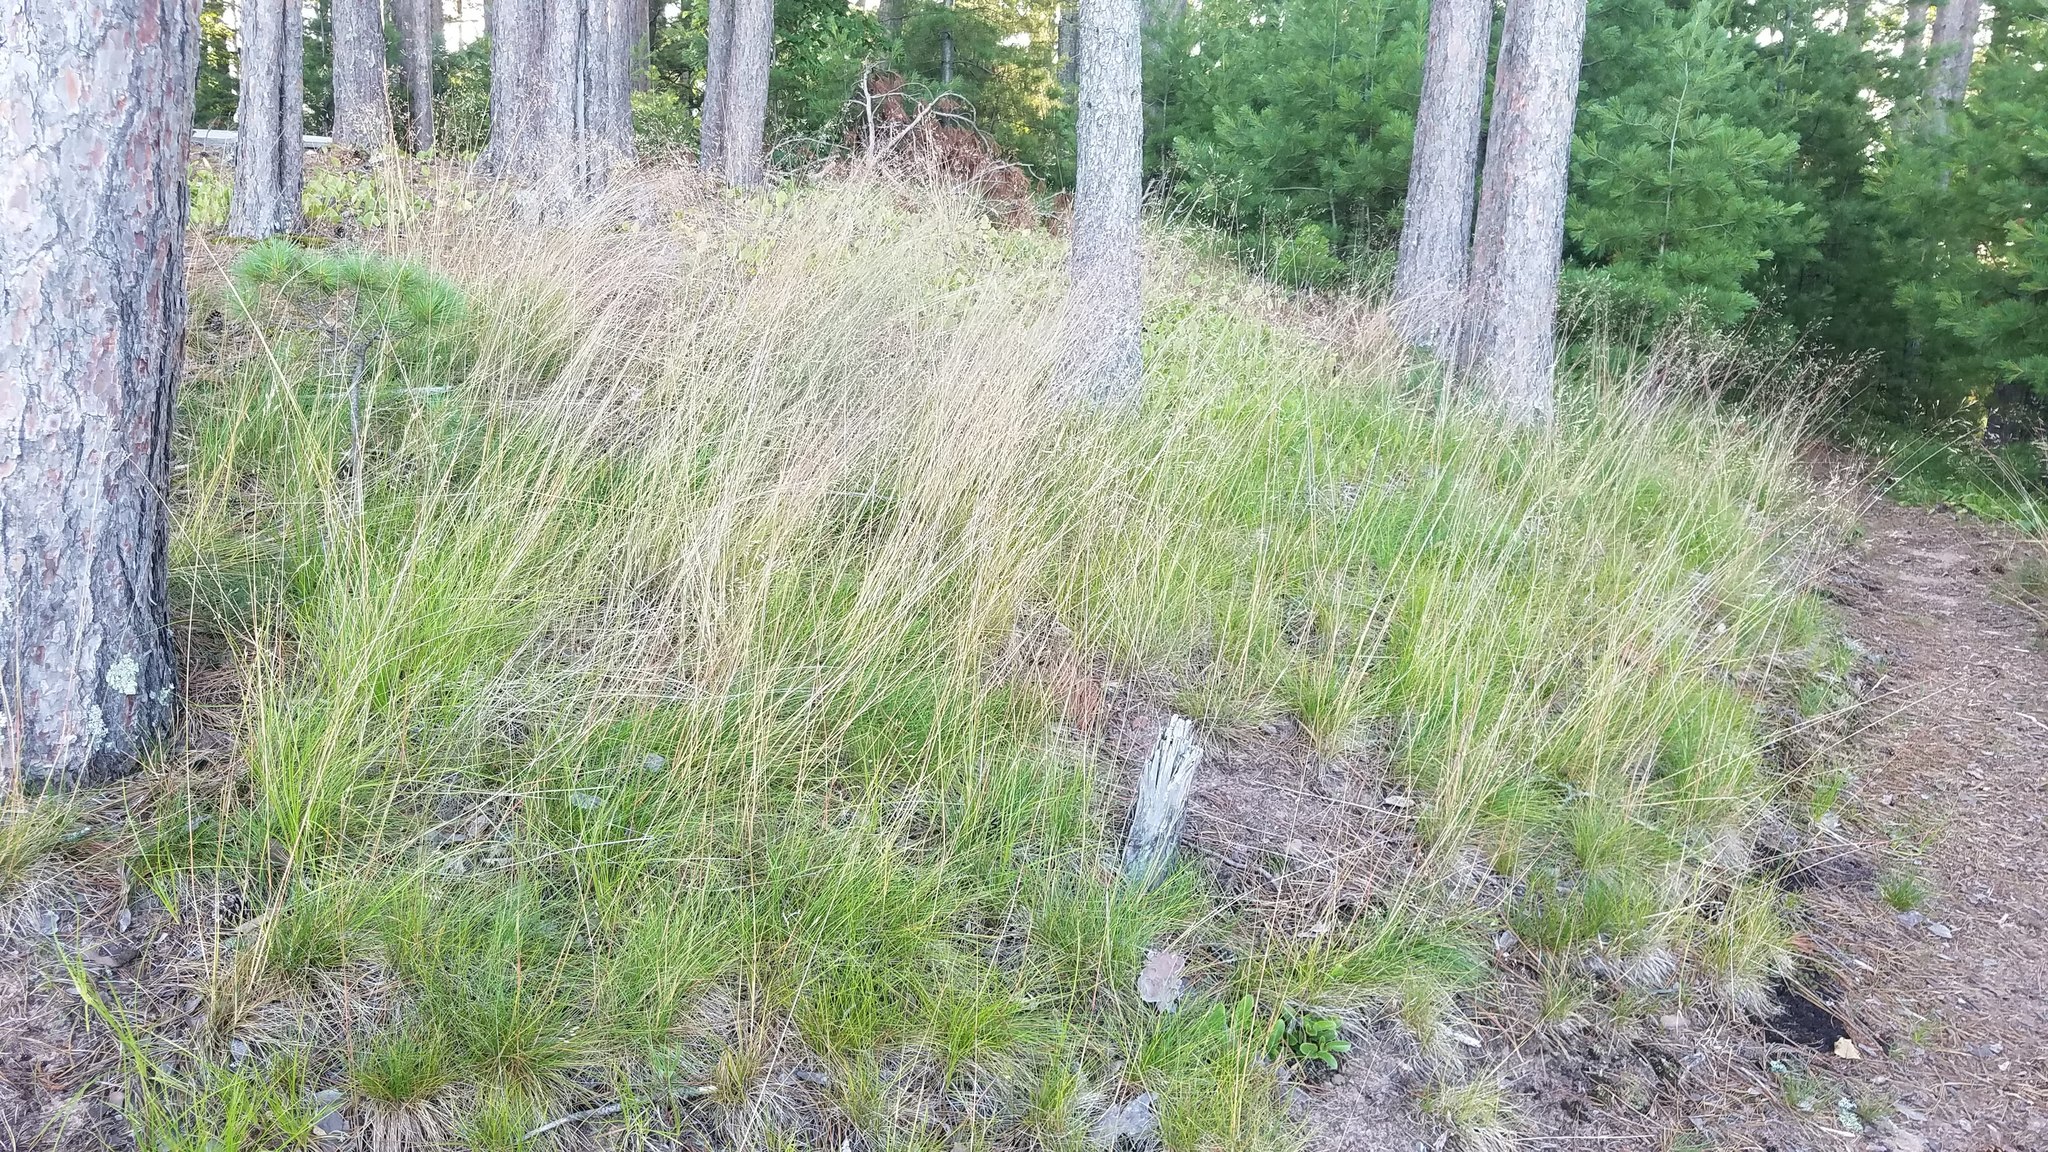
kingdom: Plantae
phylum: Tracheophyta
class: Liliopsida
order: Poales
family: Poaceae
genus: Avenella
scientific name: Avenella flexuosa
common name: Wavy hairgrass
